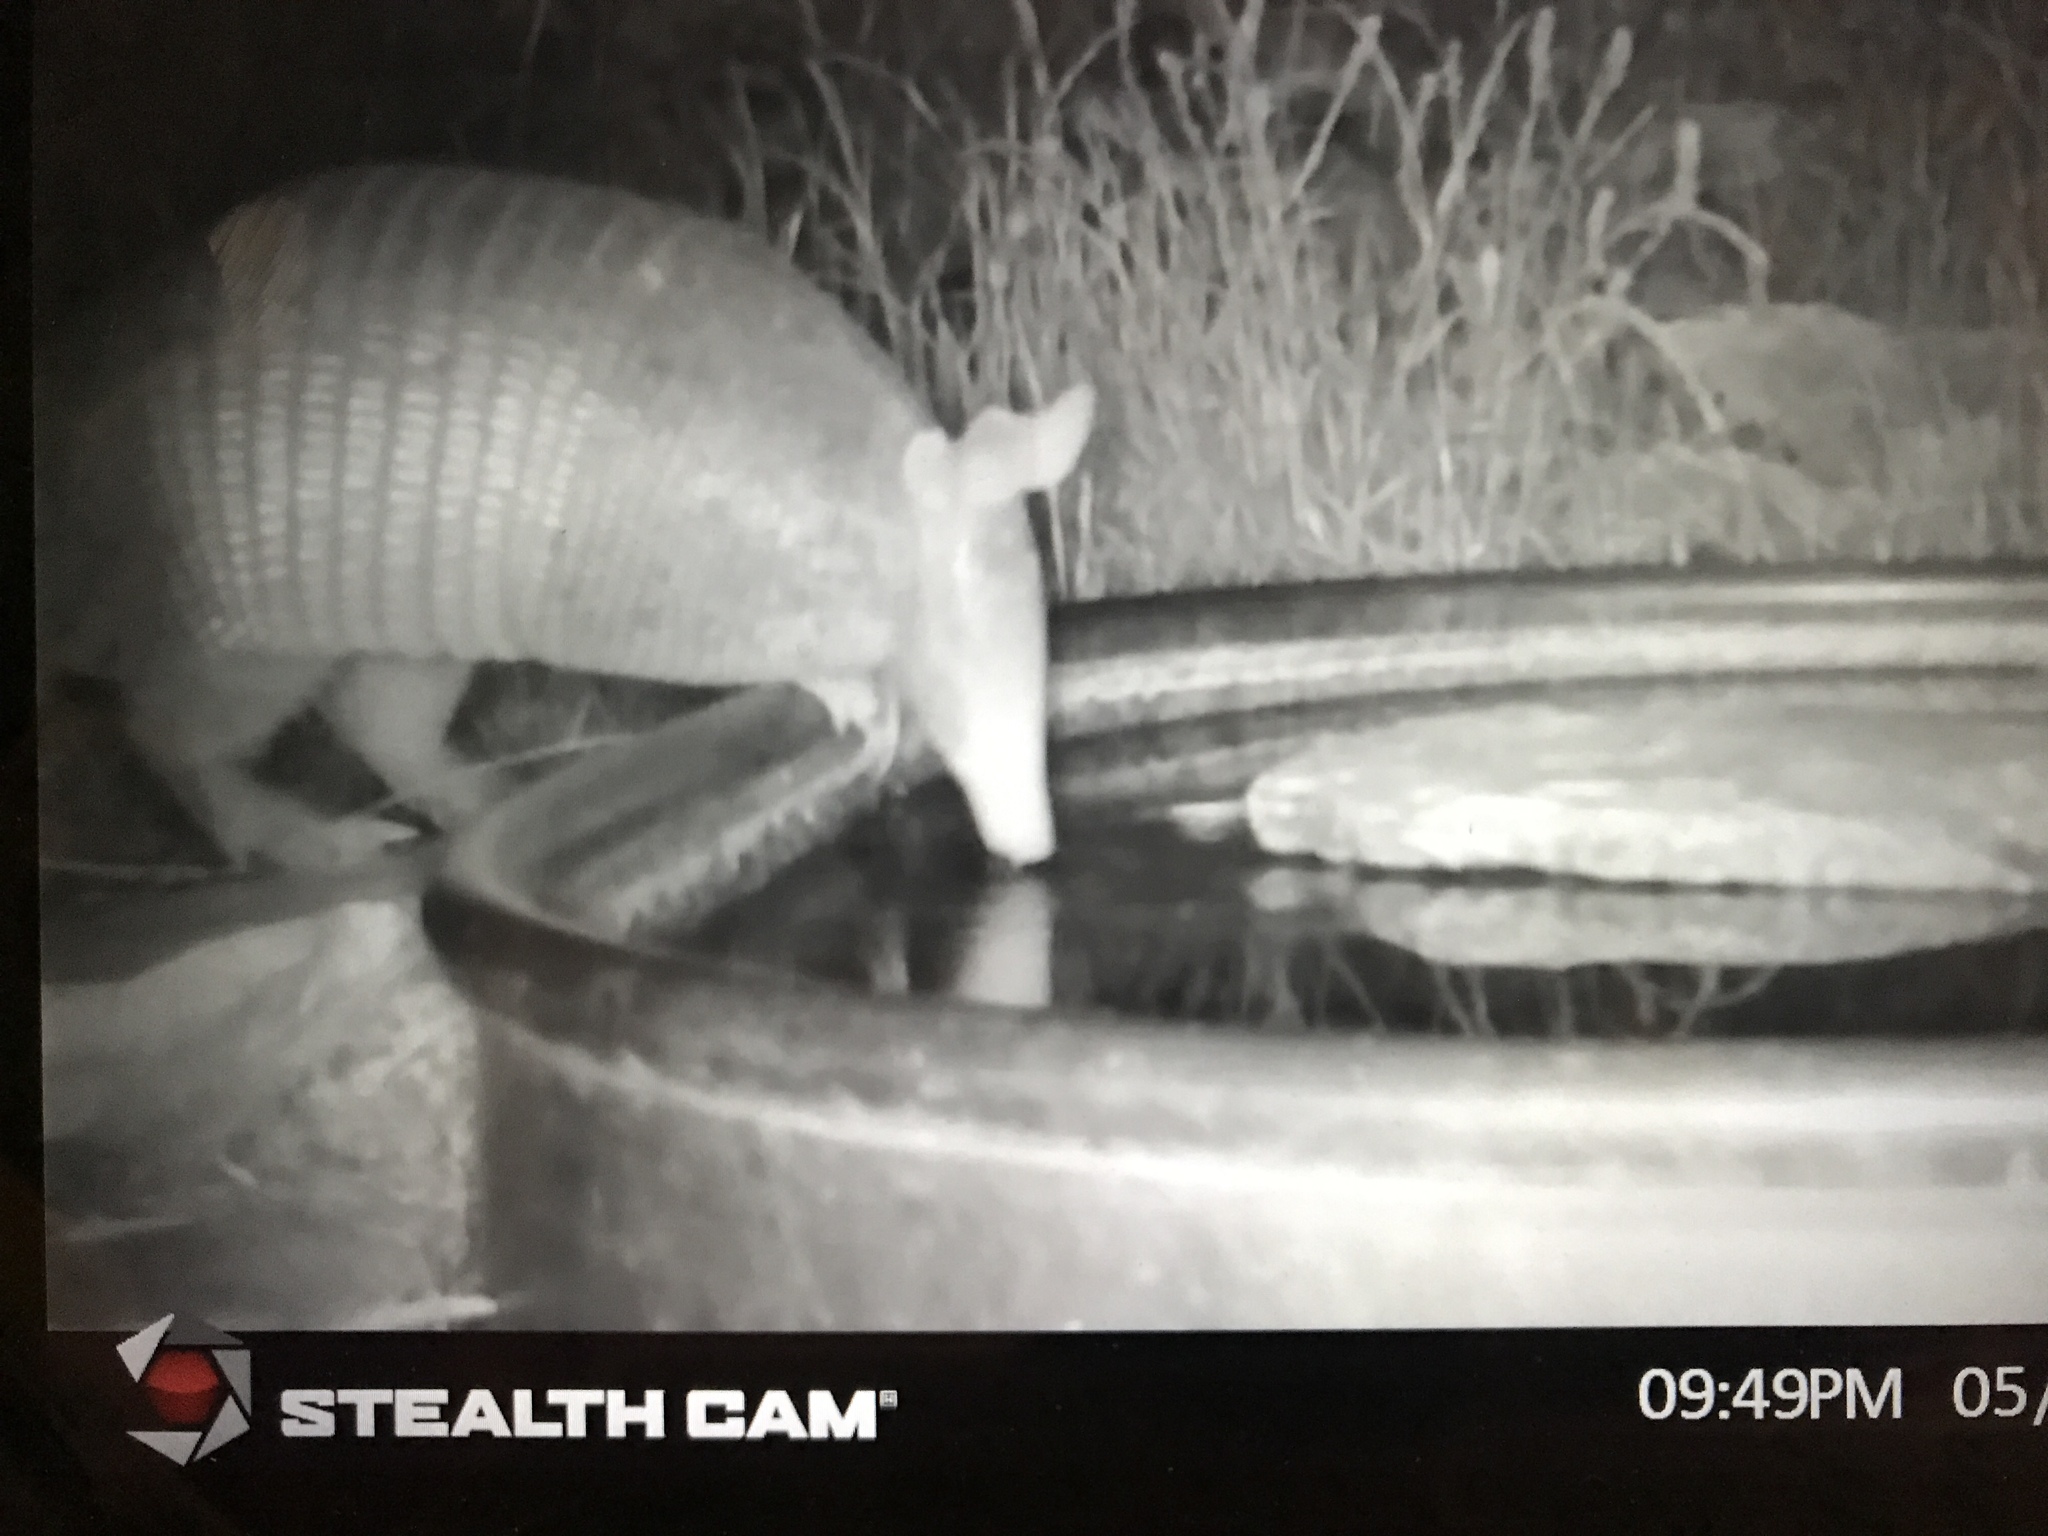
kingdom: Animalia
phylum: Chordata
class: Mammalia
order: Cingulata
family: Dasypodidae
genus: Dasypus
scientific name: Dasypus novemcinctus
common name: Nine-banded armadillo
